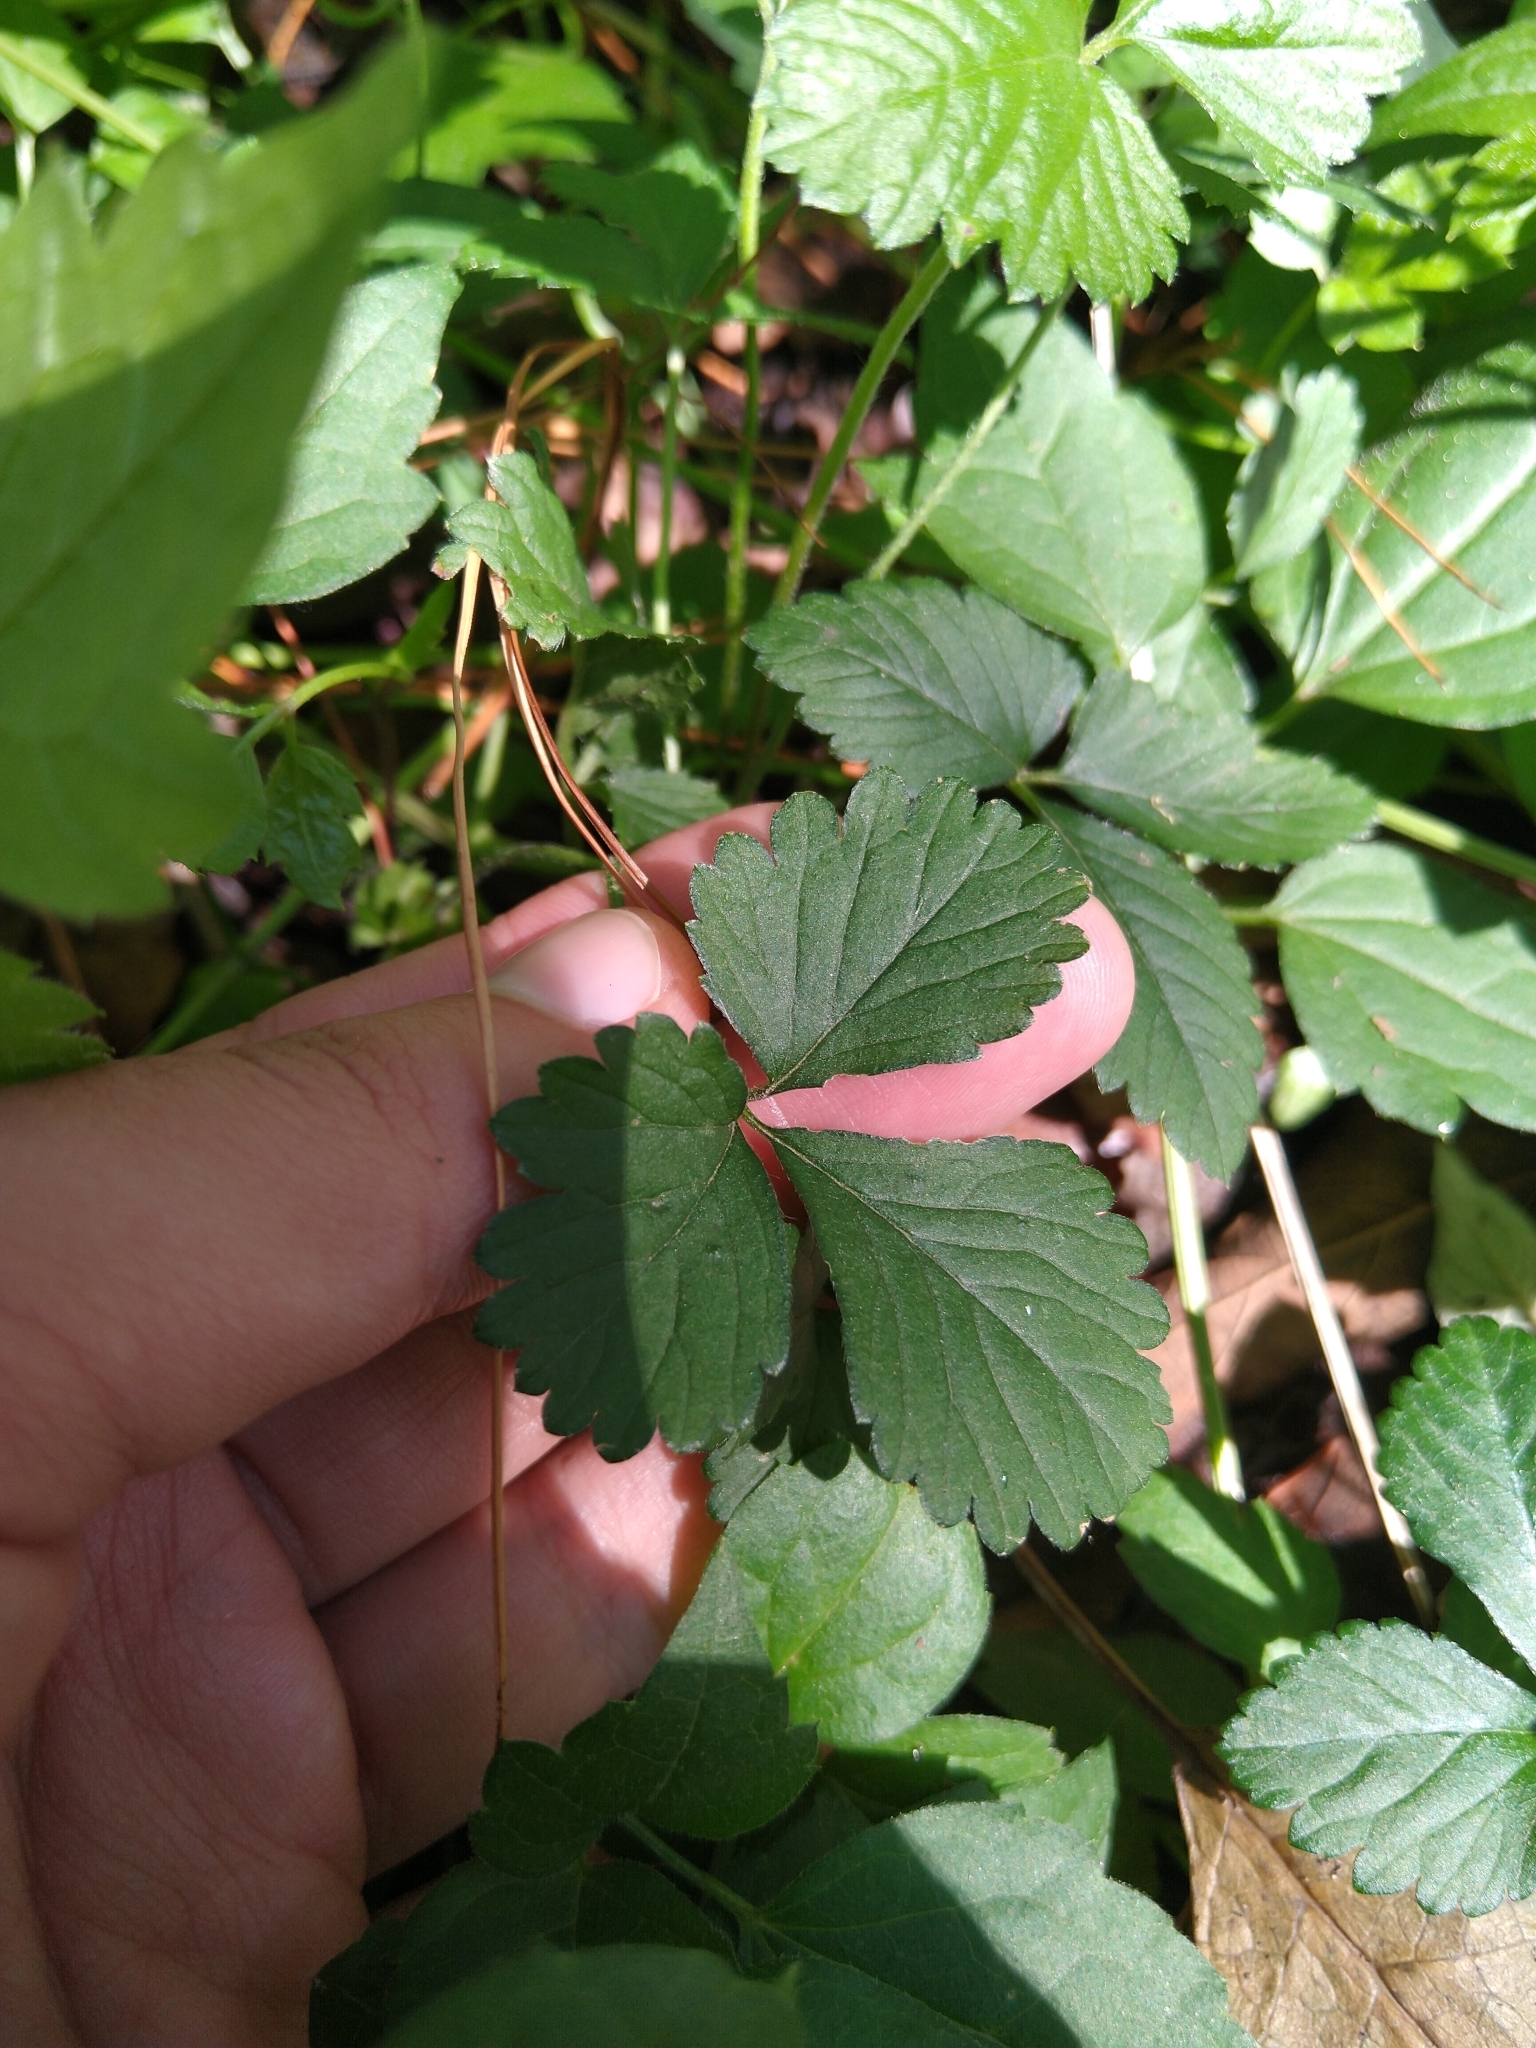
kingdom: Plantae
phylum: Tracheophyta
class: Magnoliopsida
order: Rosales
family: Rosaceae
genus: Potentilla
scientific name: Potentilla indica
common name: Yellow-flowered strawberry
